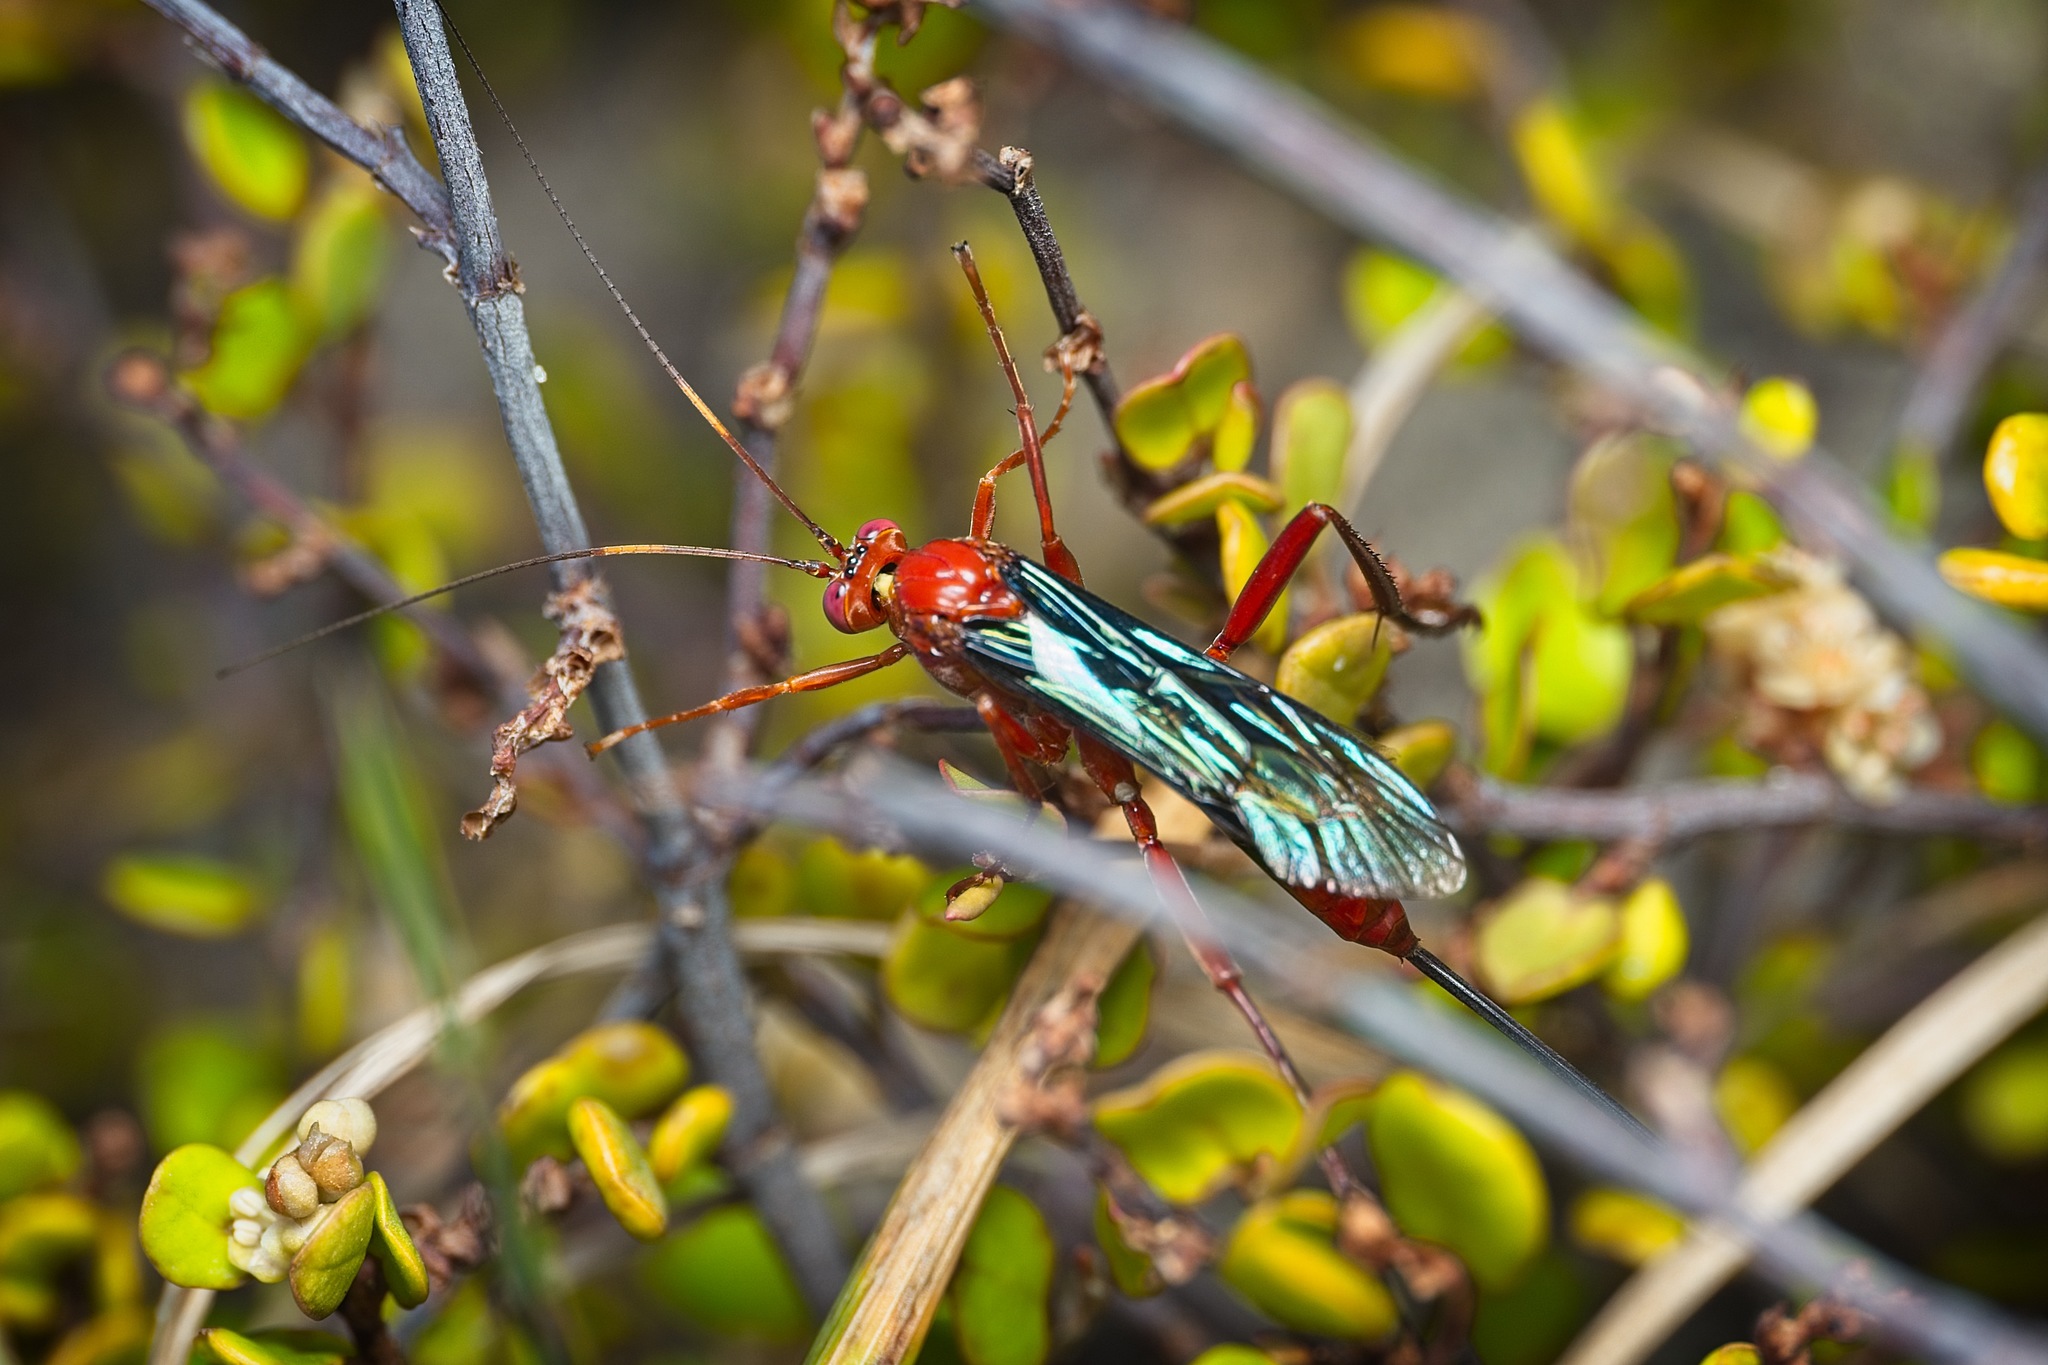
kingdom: Animalia
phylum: Arthropoda
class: Insecta
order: Hymenoptera
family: Ichneumonidae
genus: Lissopimpla
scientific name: Lissopimpla excelsa
